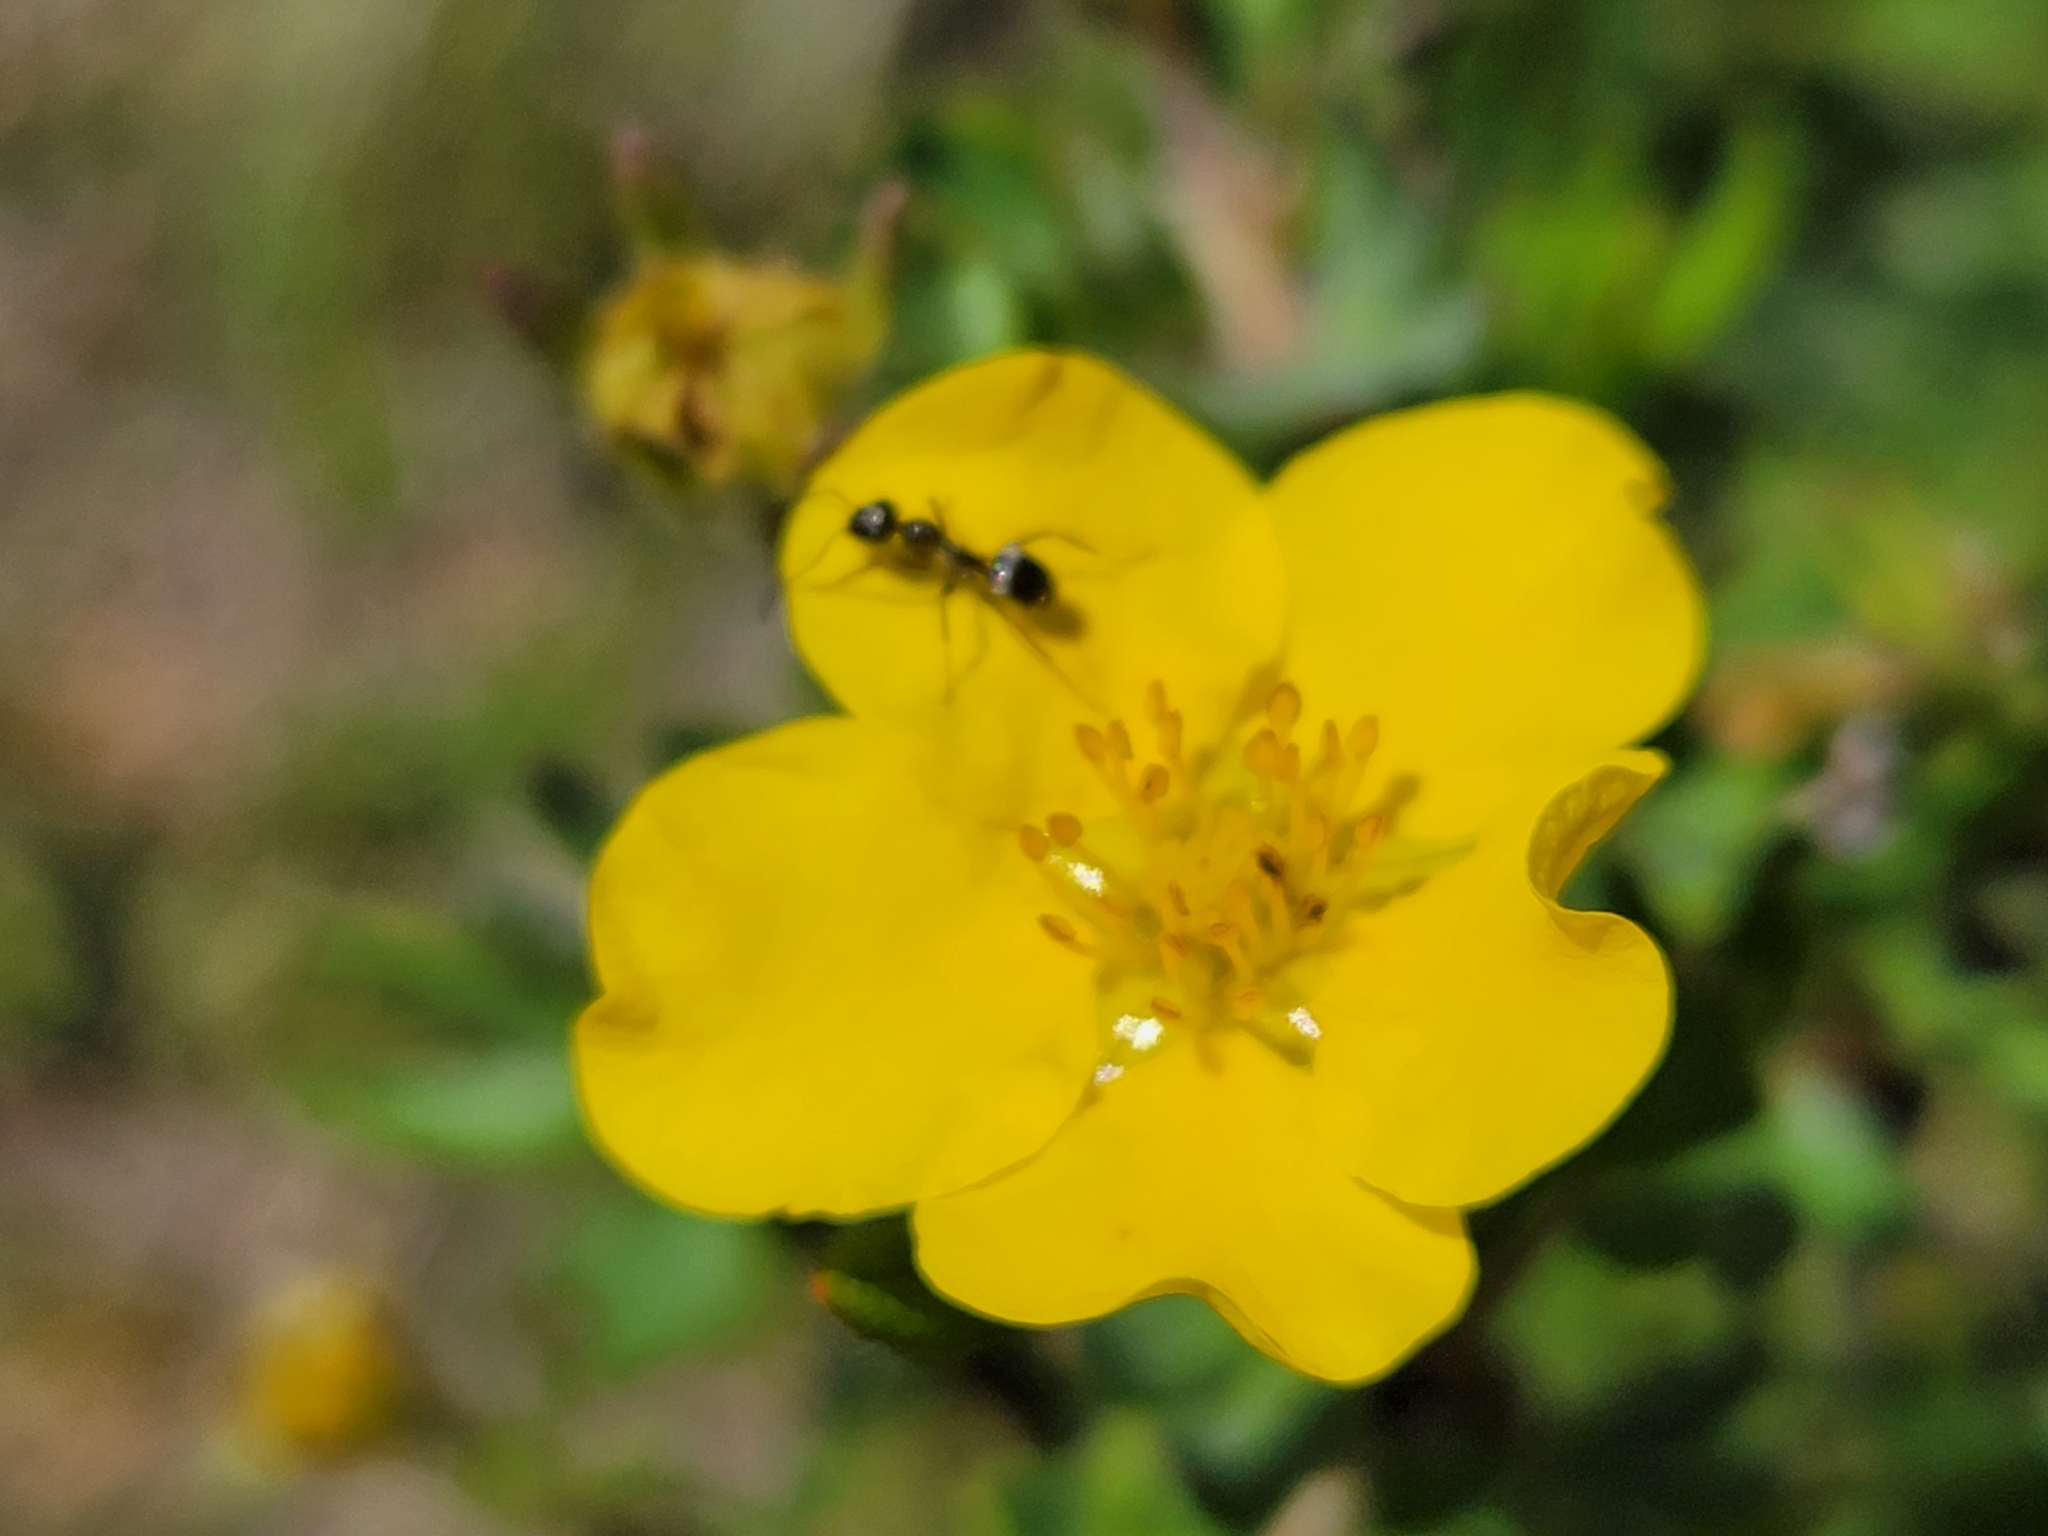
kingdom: Plantae
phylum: Tracheophyta
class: Magnoliopsida
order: Rosales
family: Rosaceae
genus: Dasiphora
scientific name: Dasiphora fruticosa
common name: Shrubby cinquefoil
